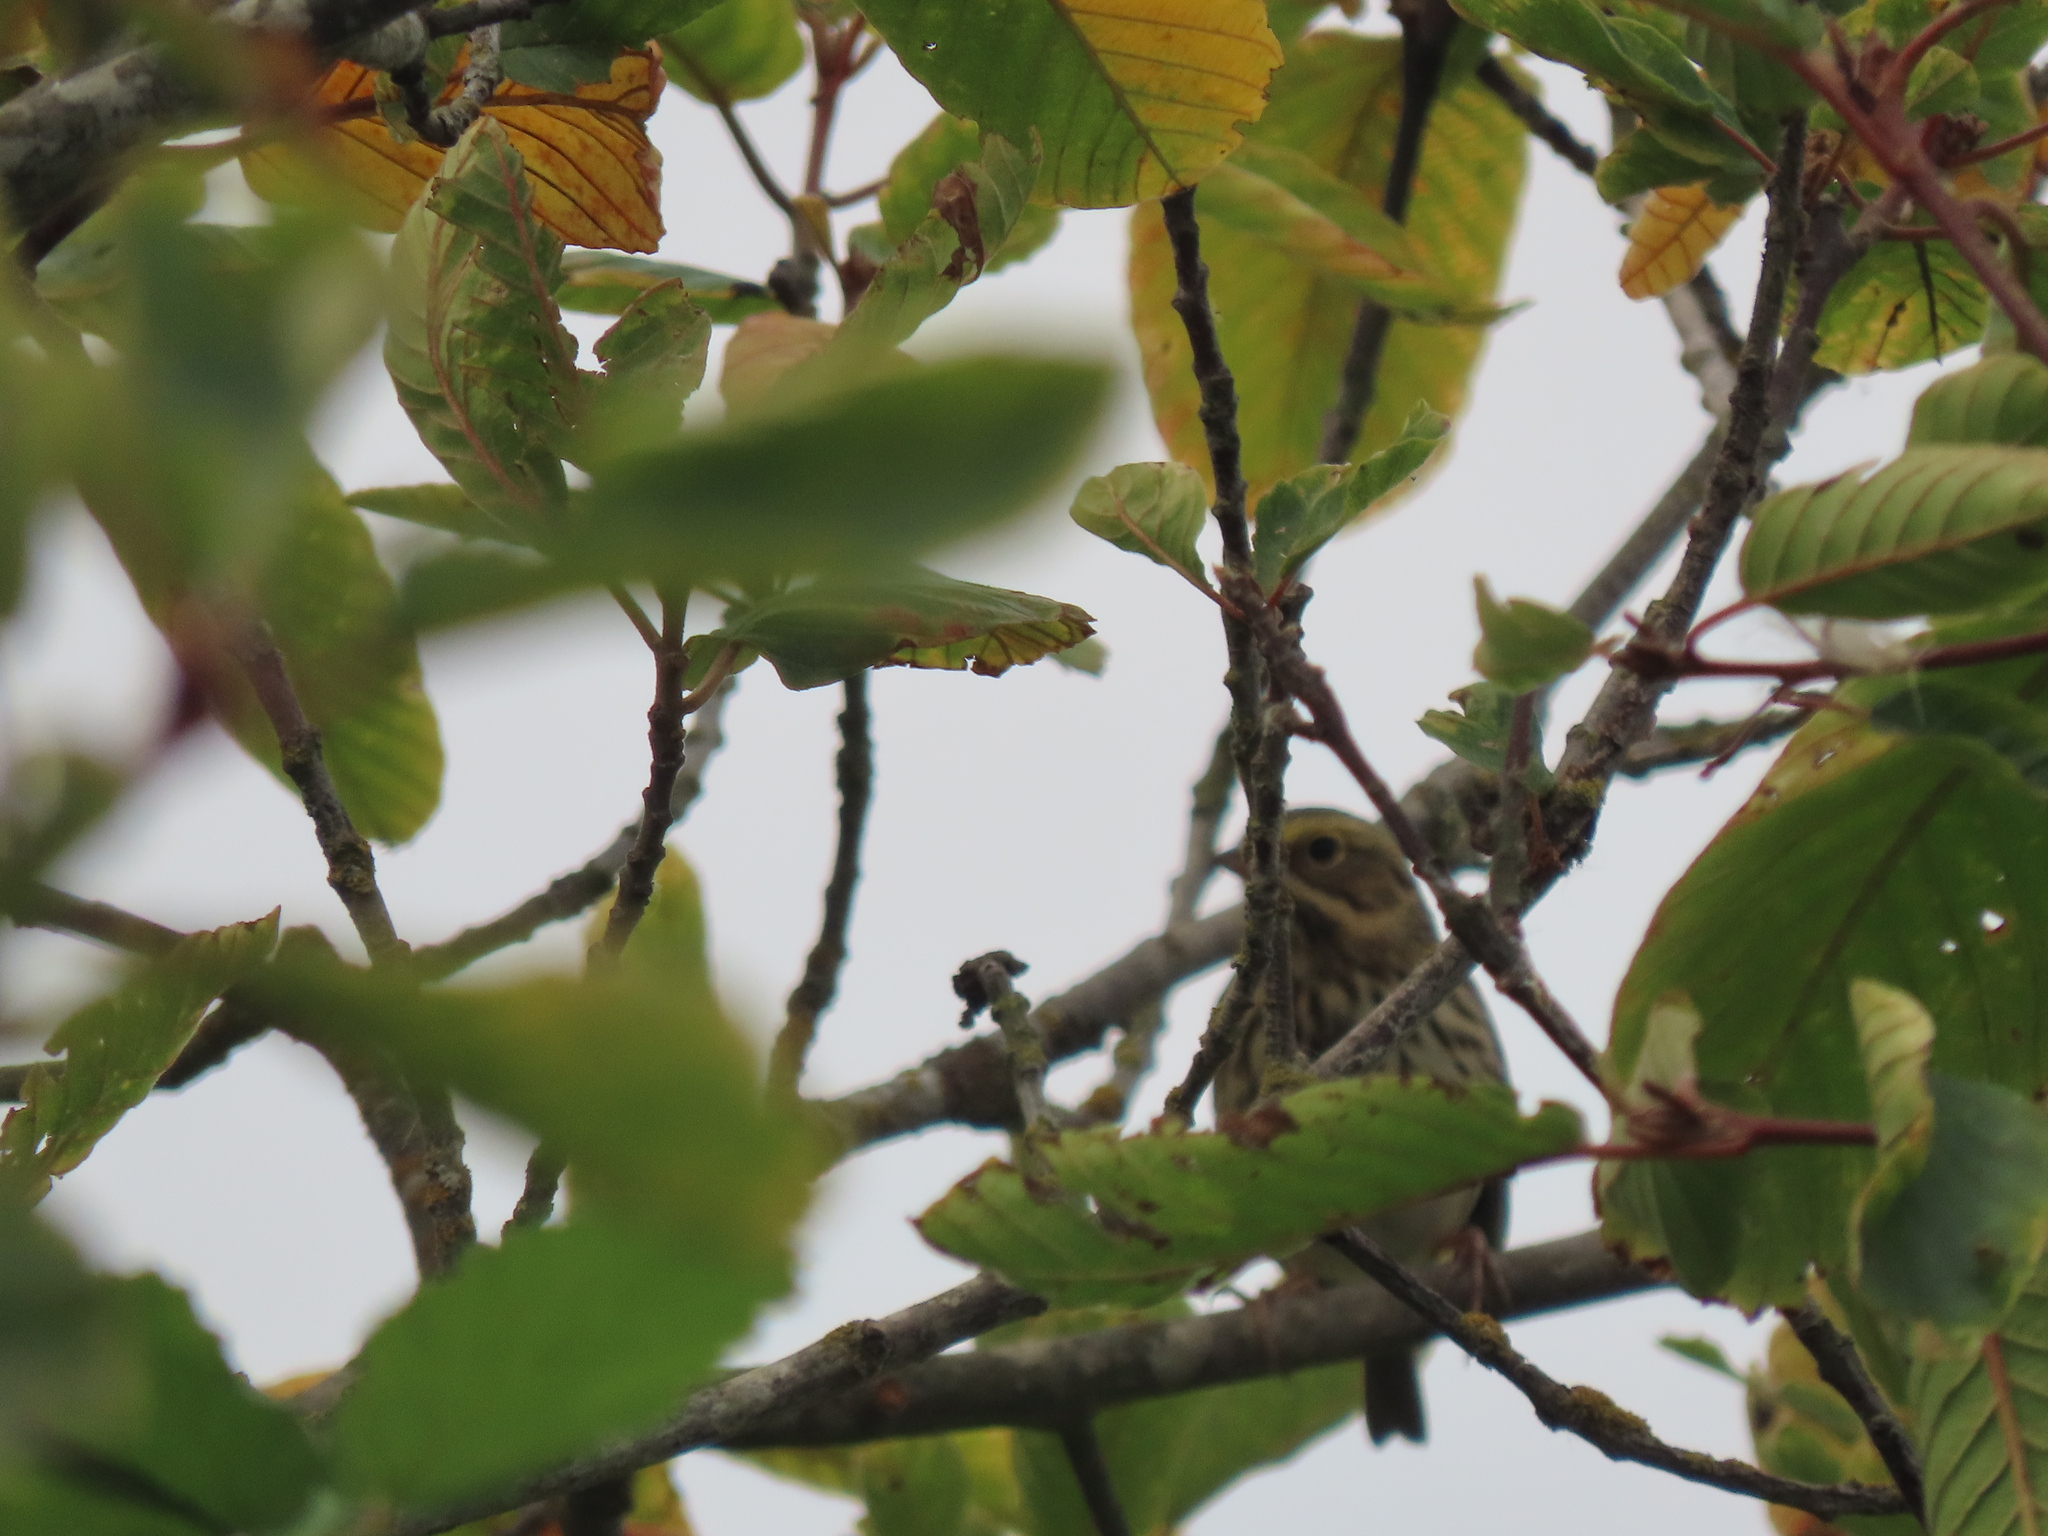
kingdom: Animalia
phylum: Chordata
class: Aves
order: Passeriformes
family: Passerellidae
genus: Passerculus
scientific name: Passerculus sandwichensis
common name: Savannah sparrow
